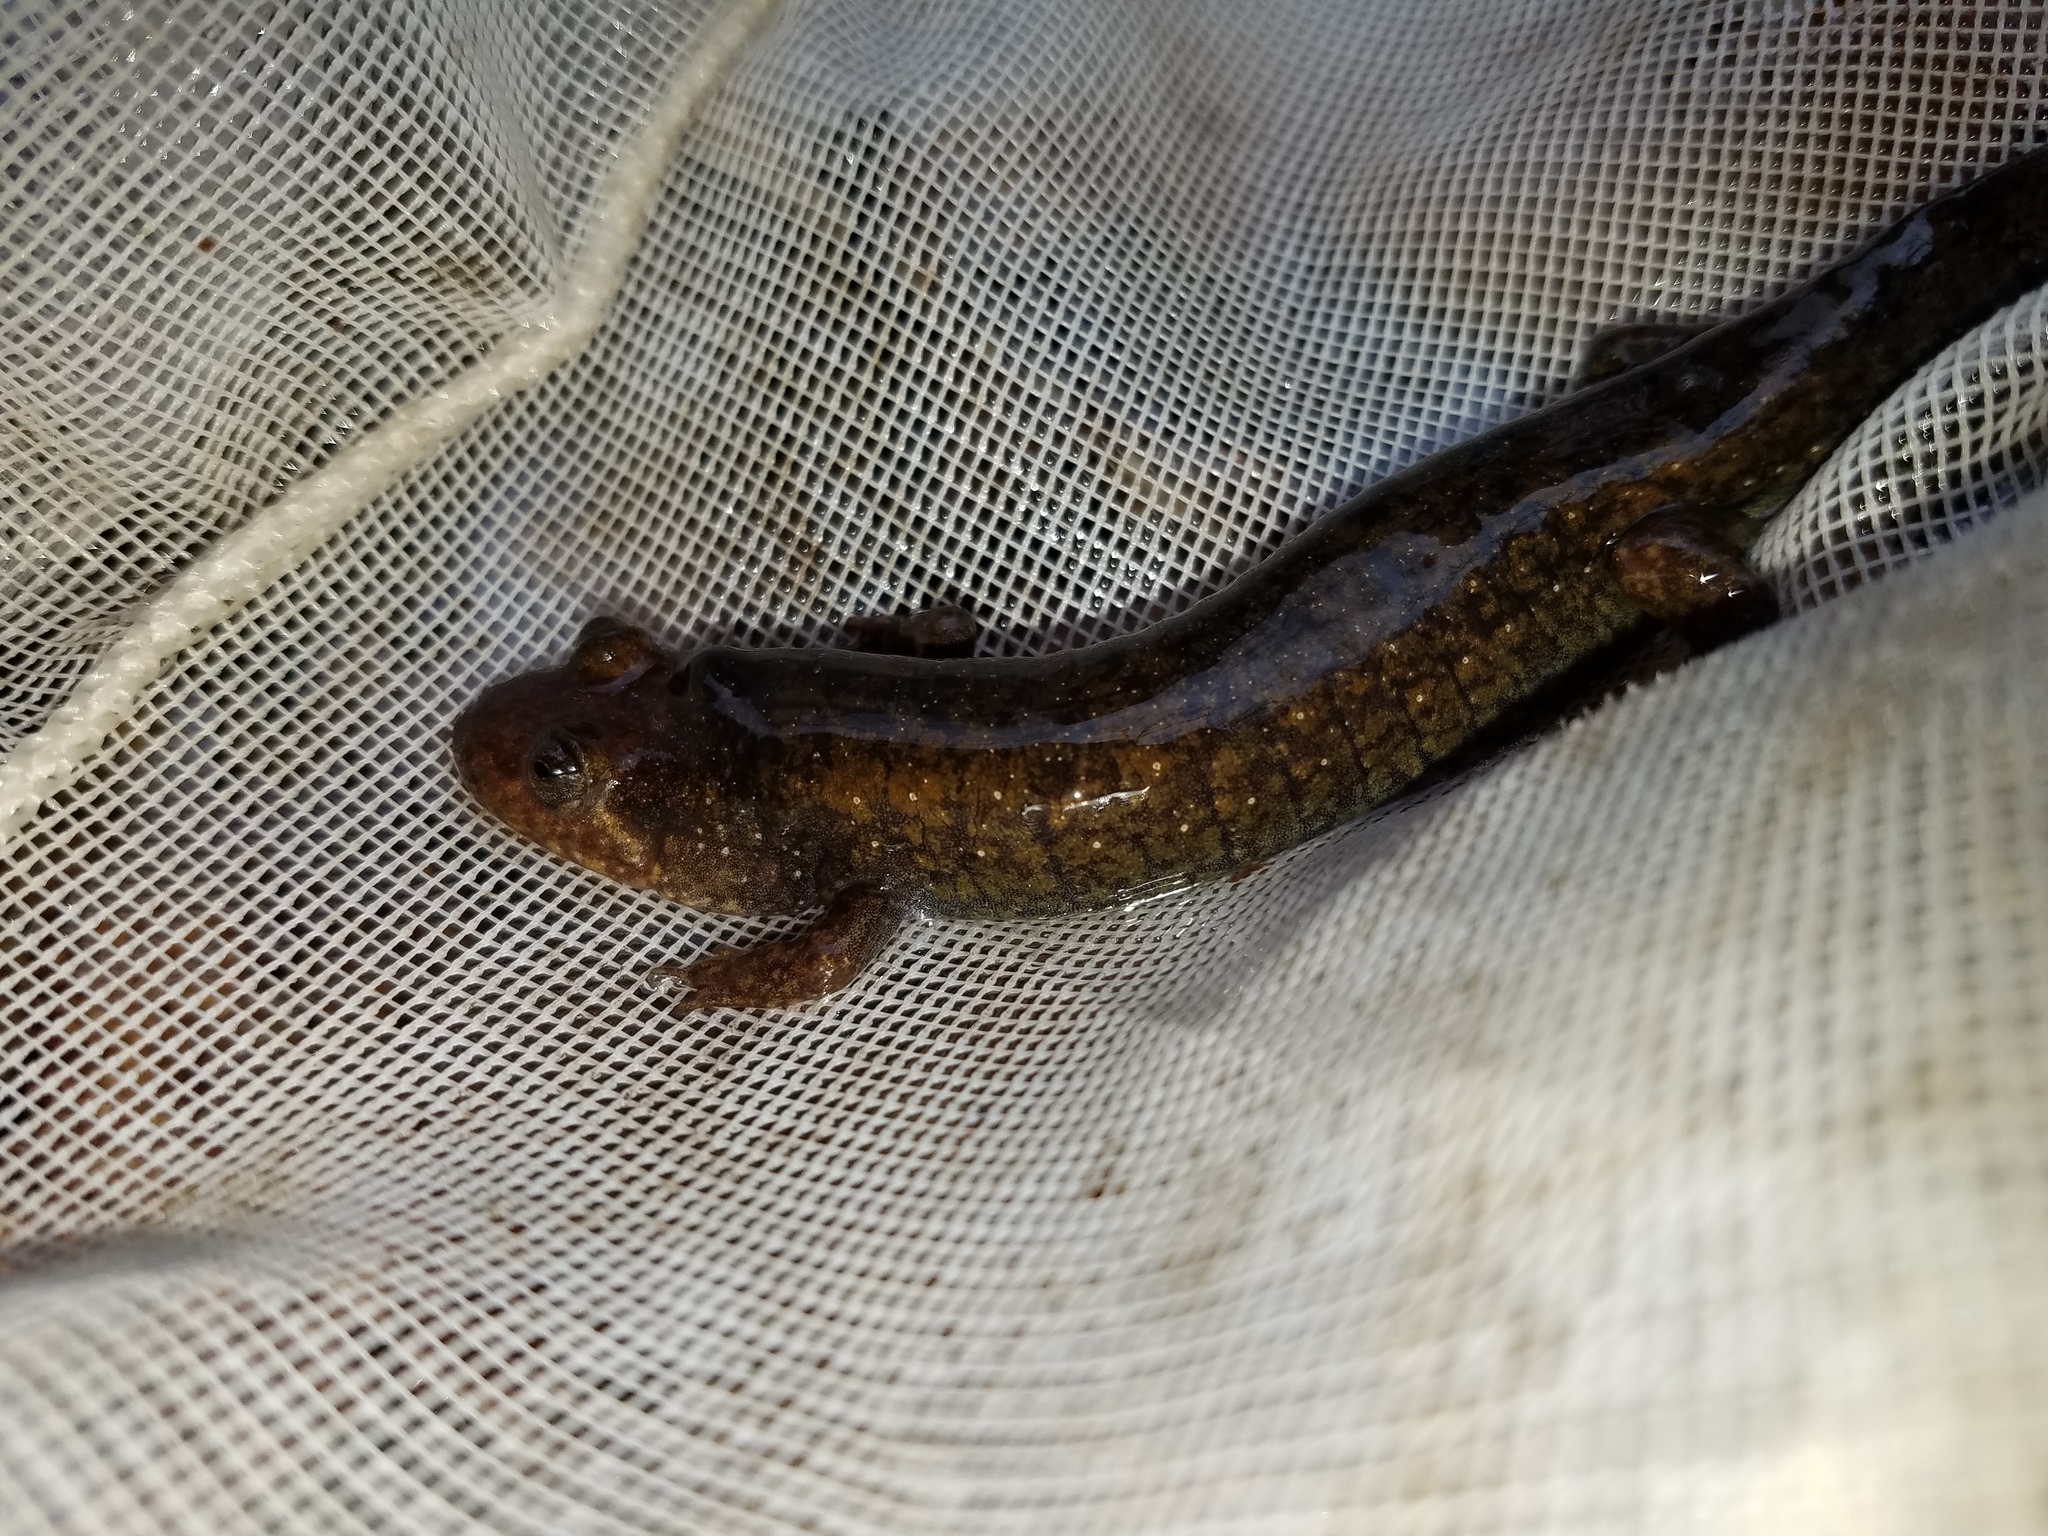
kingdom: Animalia
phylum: Chordata
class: Amphibia
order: Caudata
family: Plethodontidae
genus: Desmognathus
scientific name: Desmognathus
